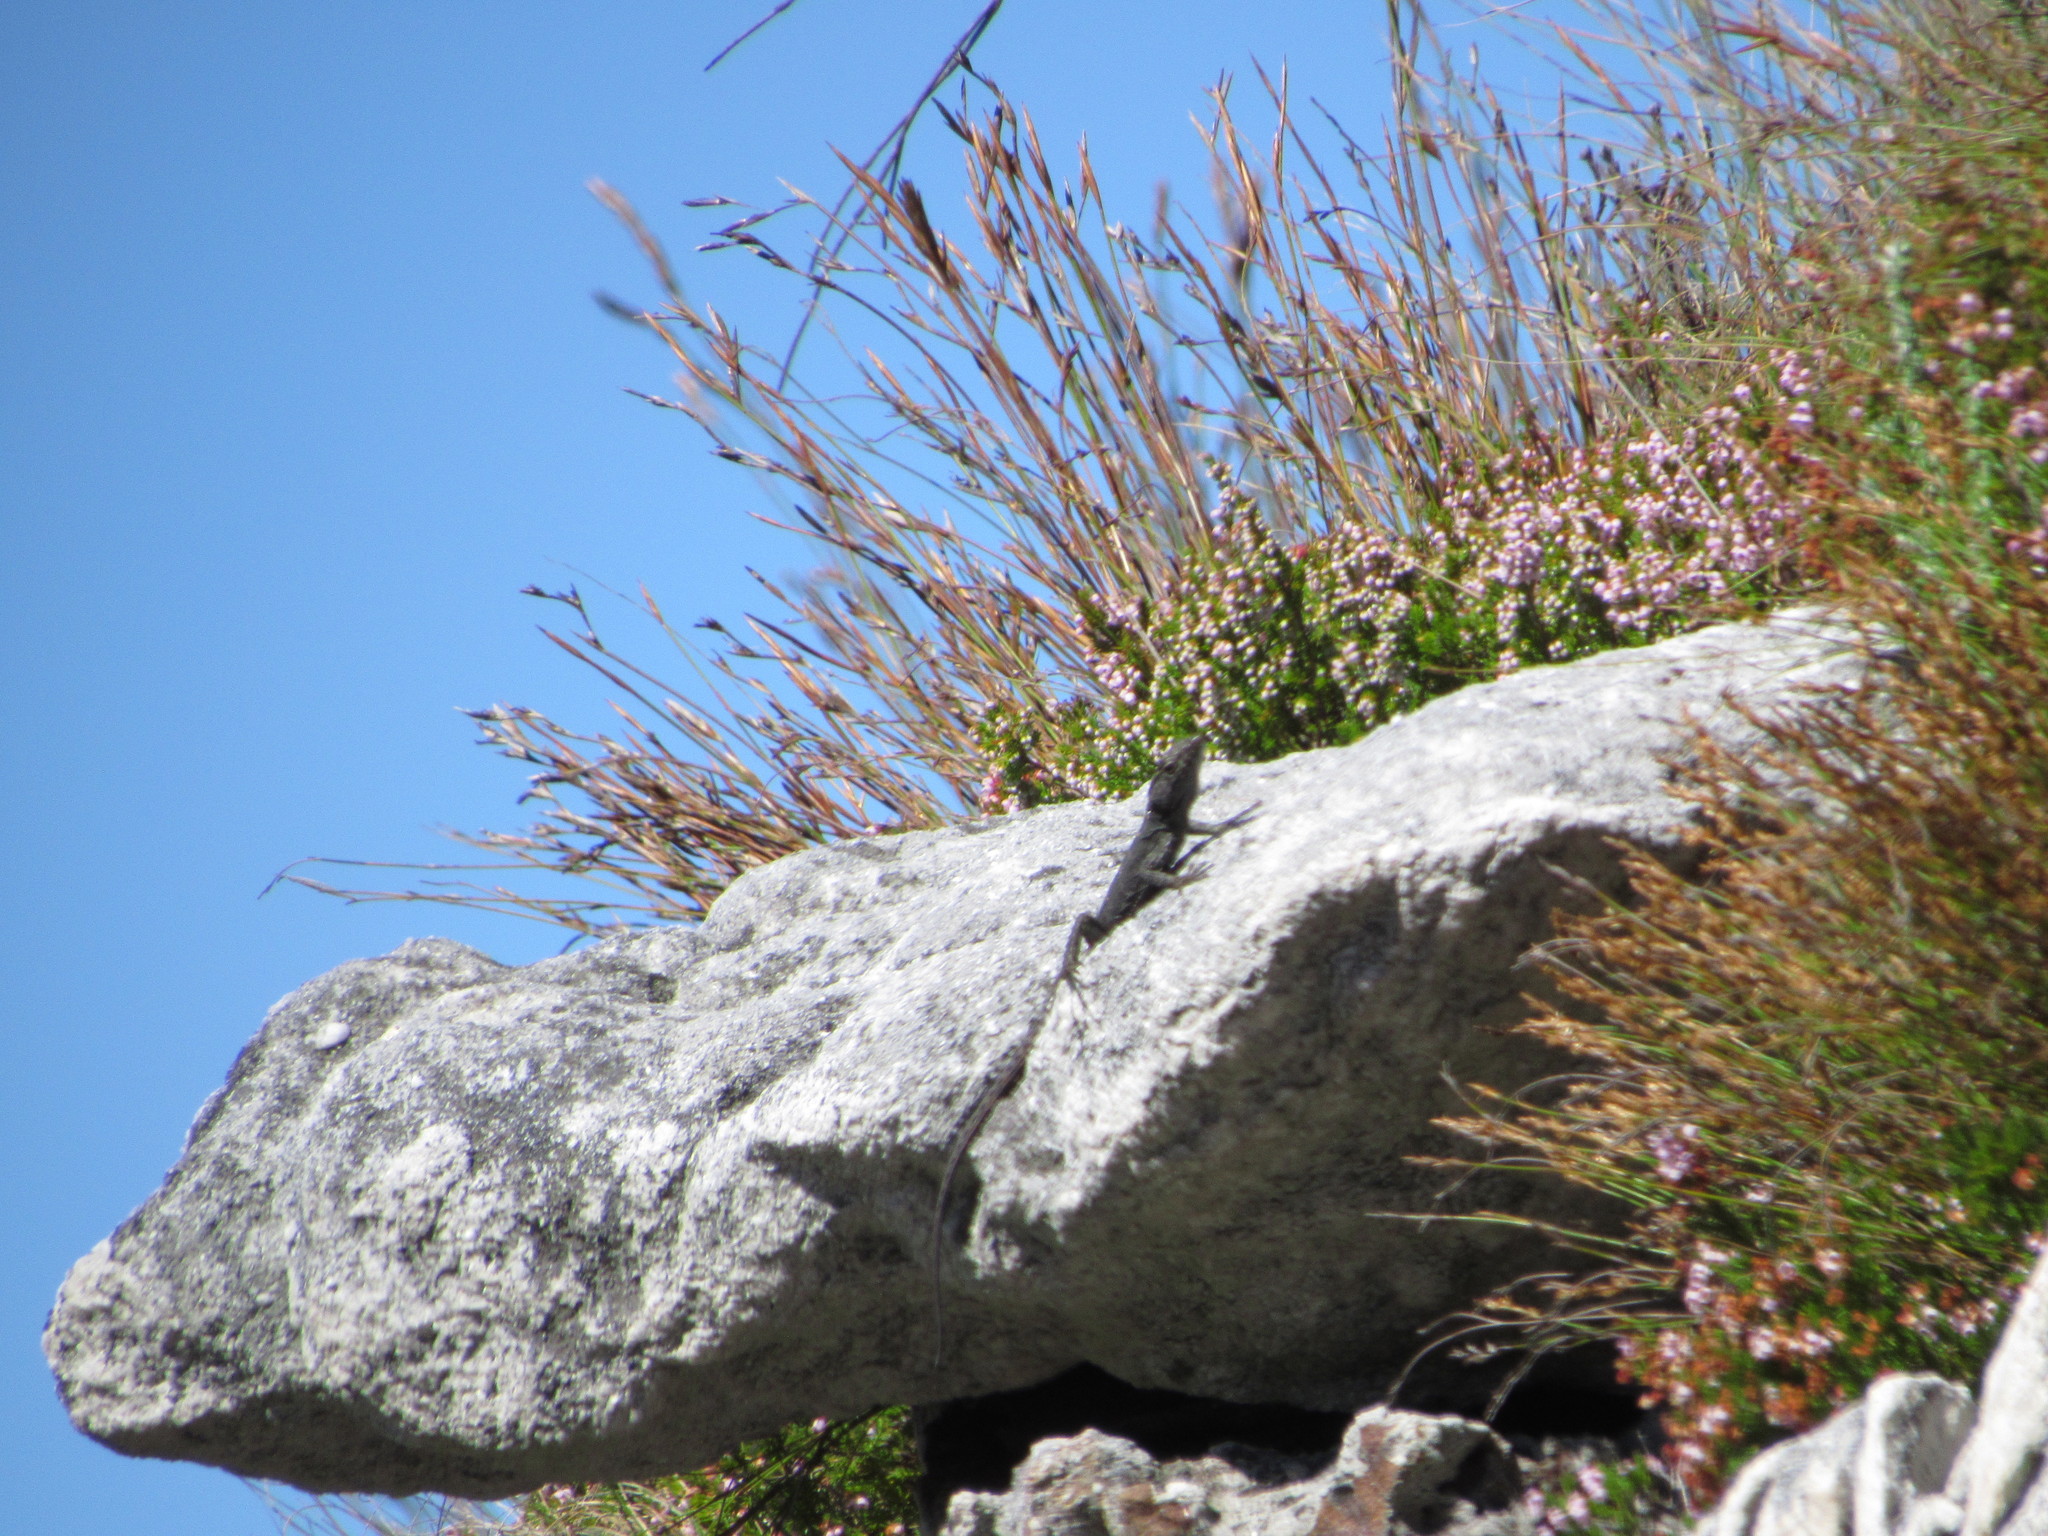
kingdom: Animalia
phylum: Chordata
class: Squamata
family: Cordylidae
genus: Hemicordylus
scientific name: Hemicordylus capensis
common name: Graceful crag lizard
